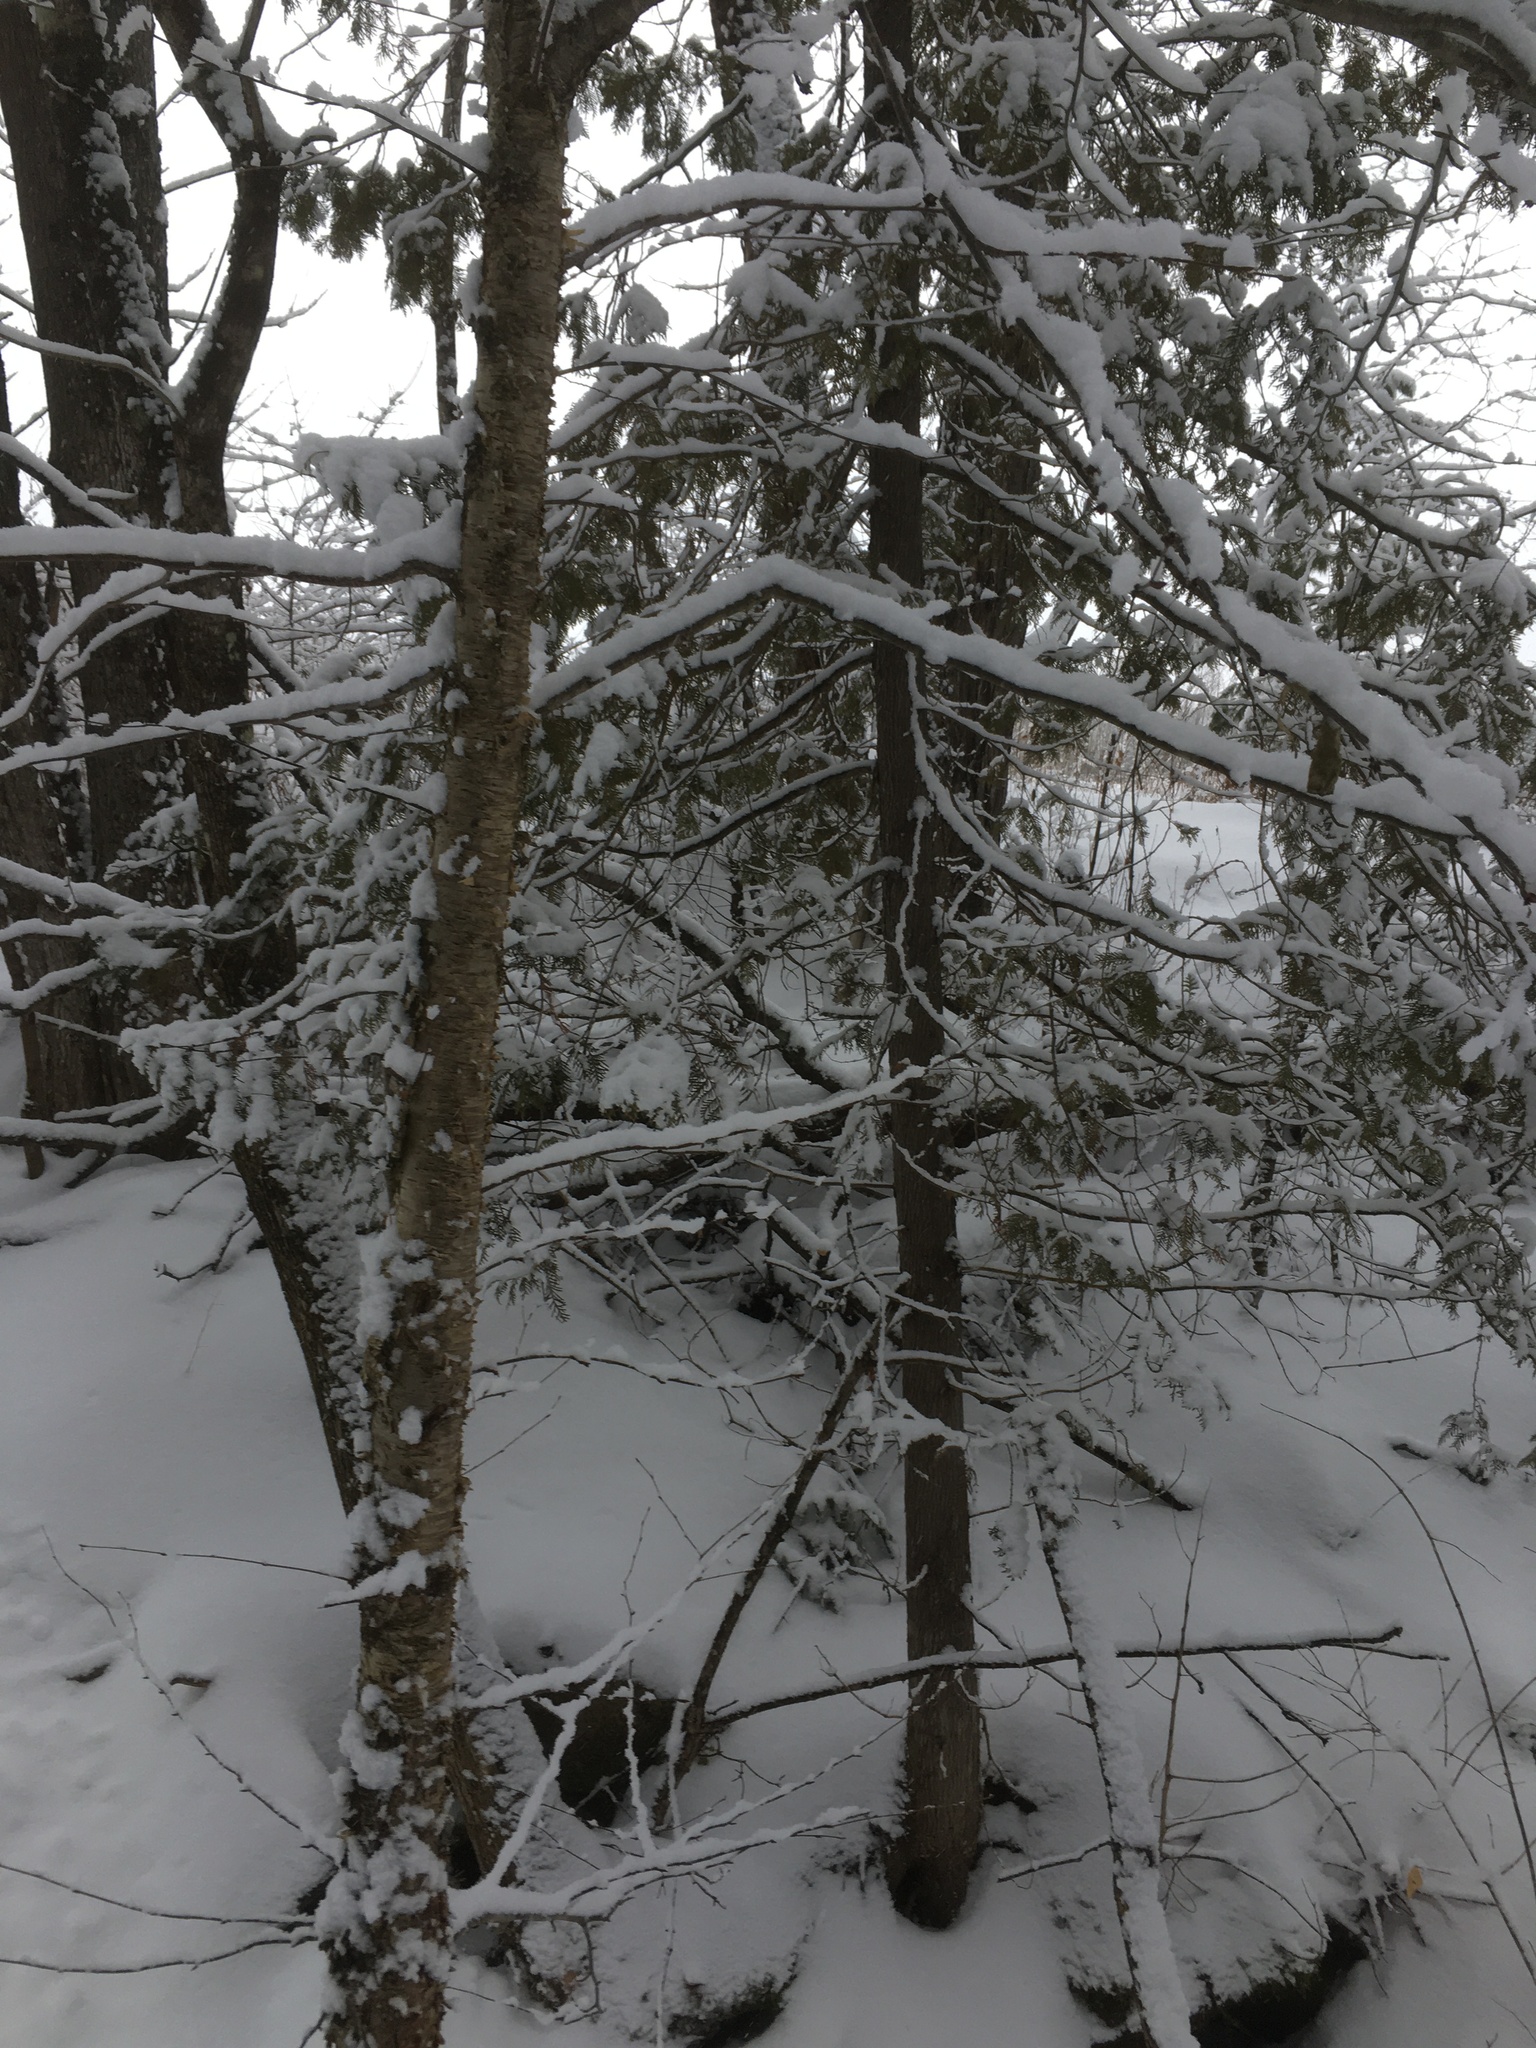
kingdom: Plantae
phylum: Tracheophyta
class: Magnoliopsida
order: Fagales
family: Betulaceae
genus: Betula
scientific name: Betula alleghaniensis
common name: Yellow birch
